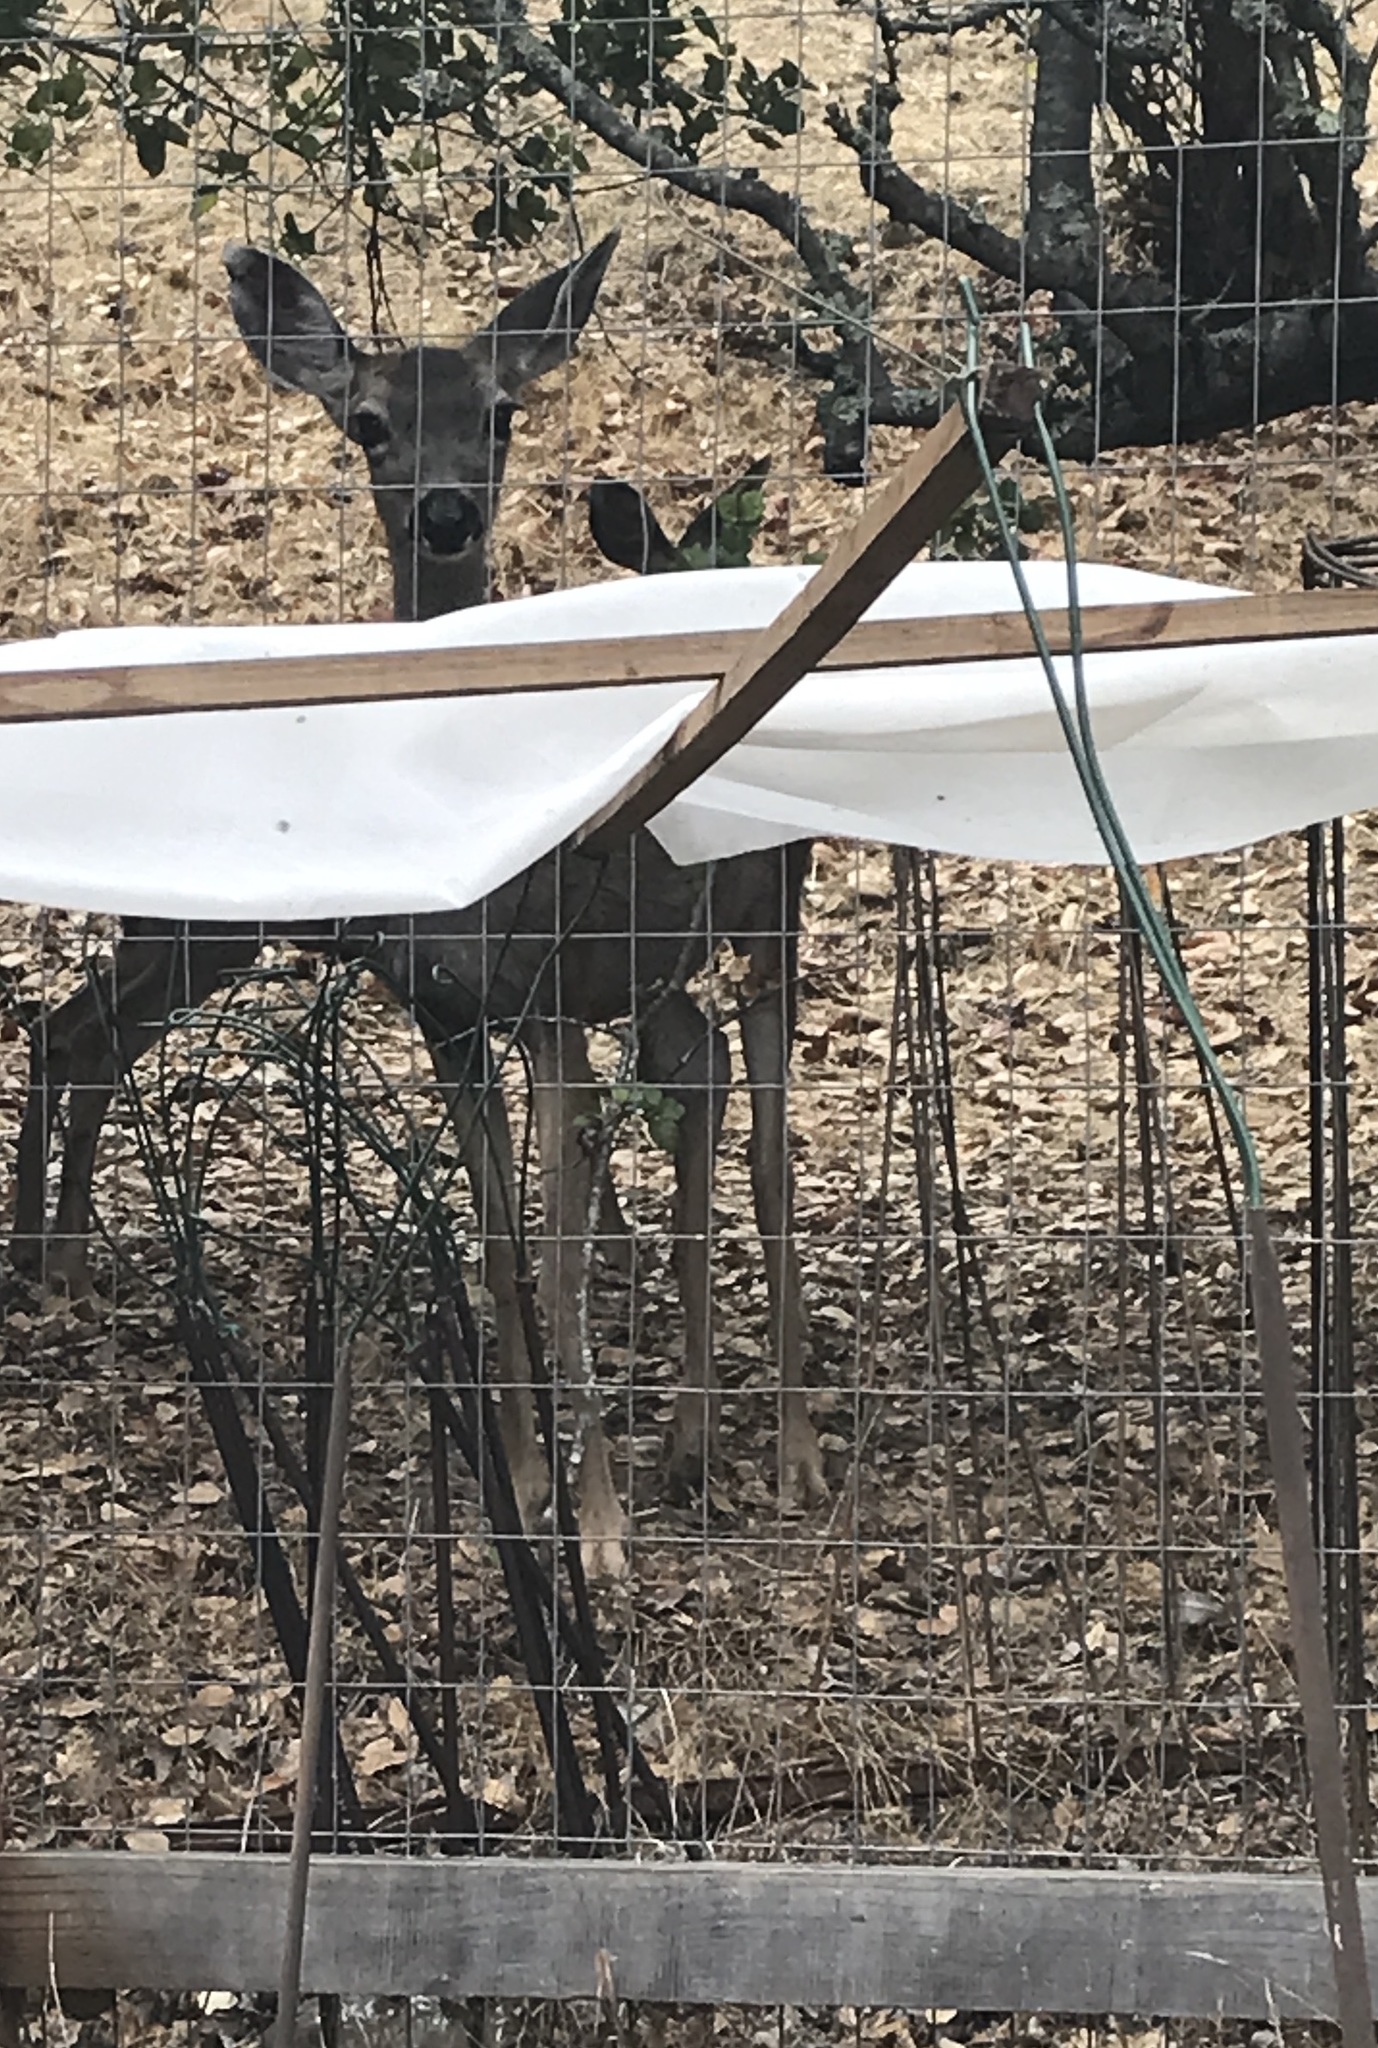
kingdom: Animalia
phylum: Chordata
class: Mammalia
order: Artiodactyla
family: Cervidae
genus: Odocoileus
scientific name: Odocoileus hemionus
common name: Mule deer
